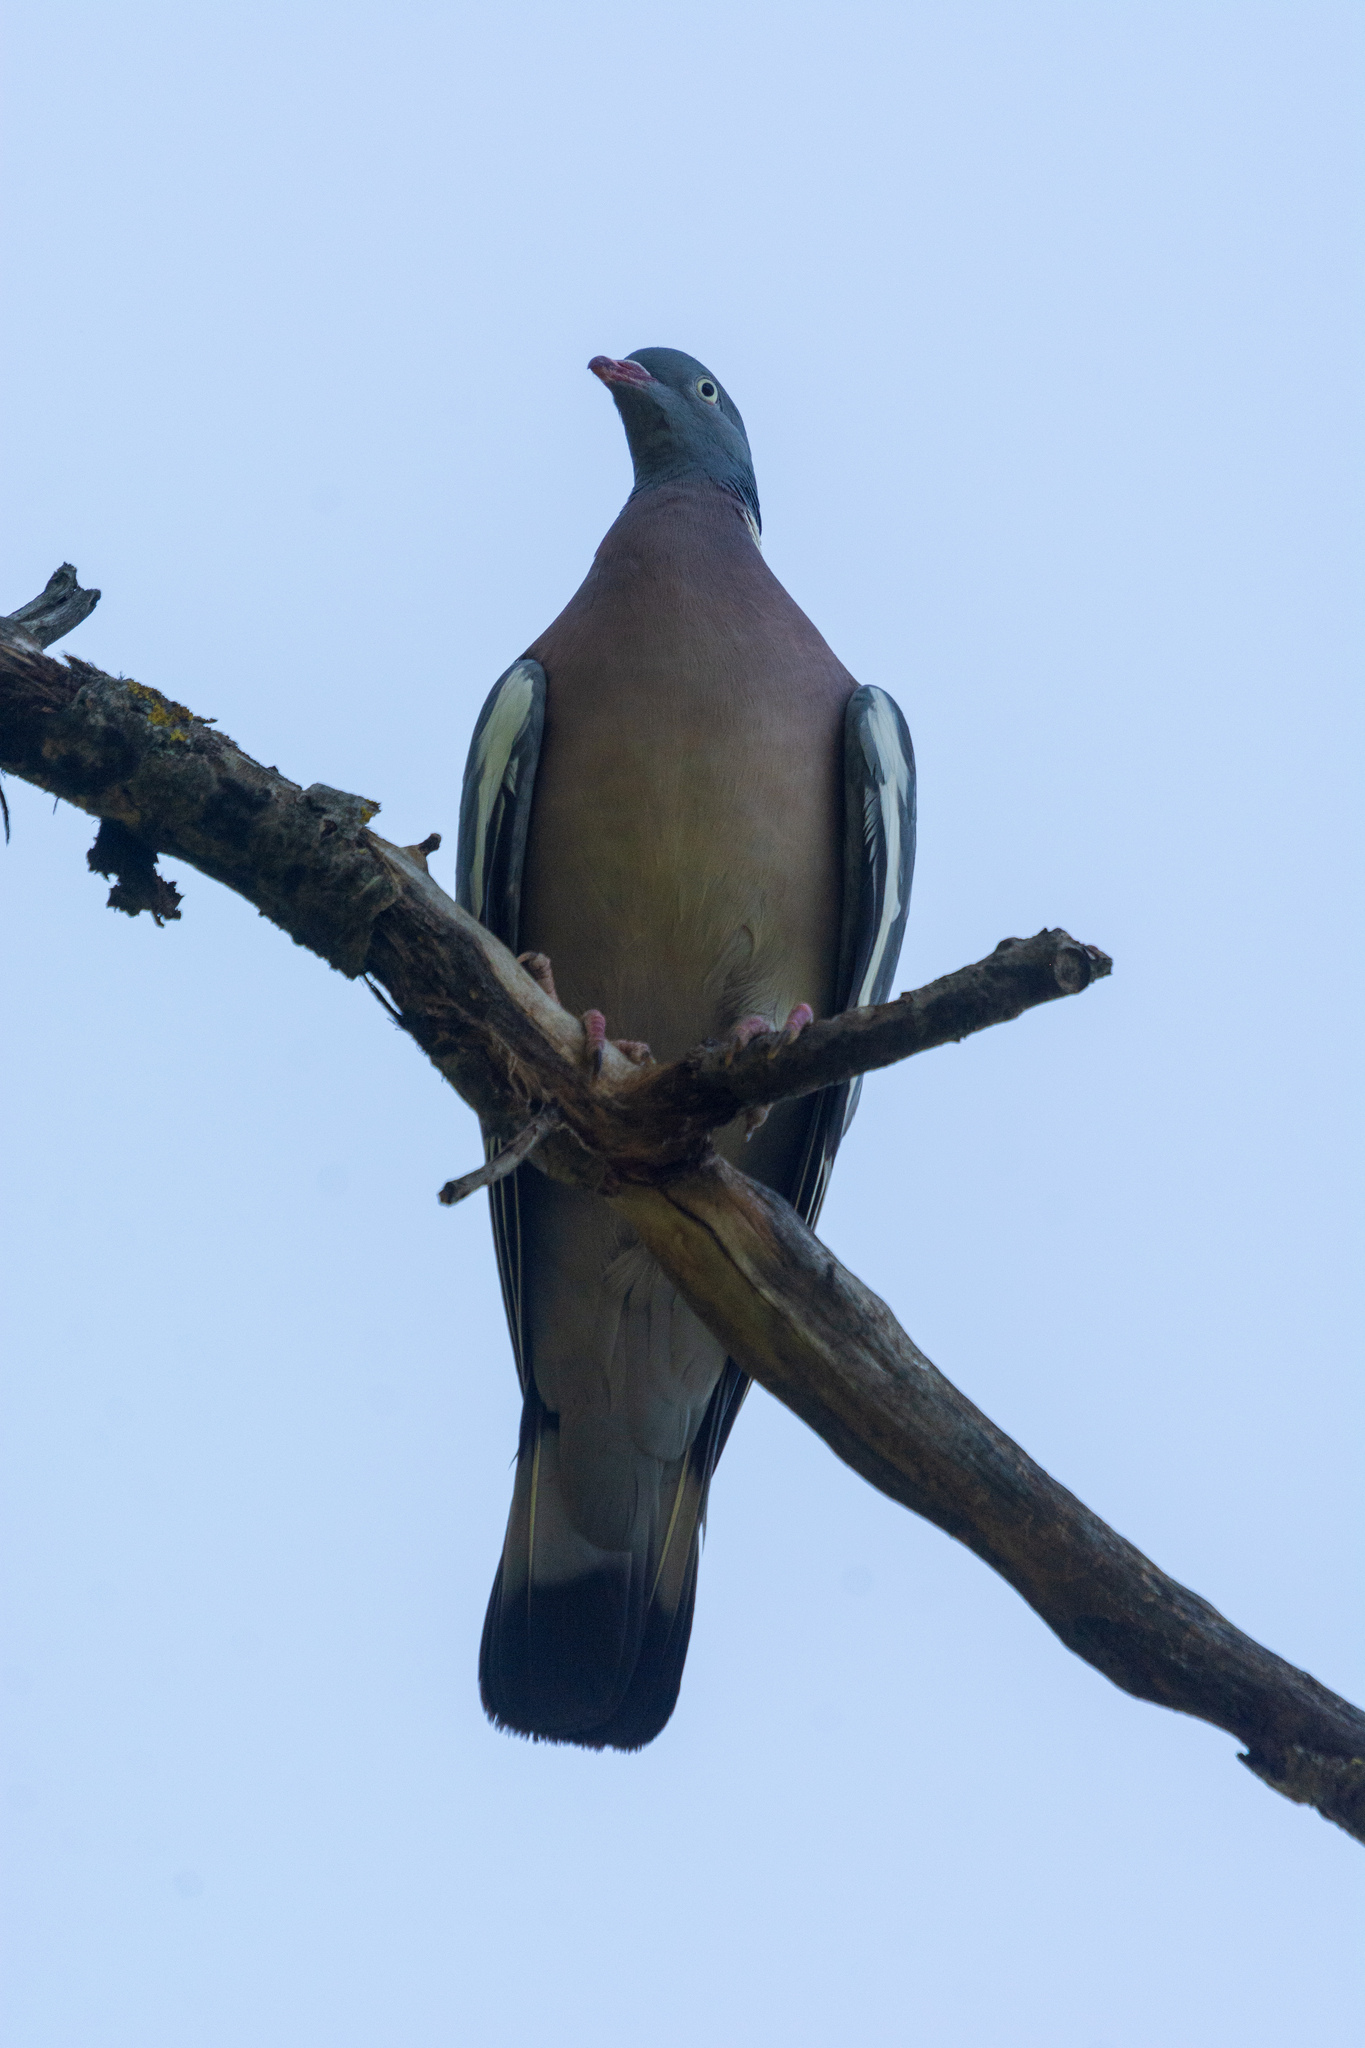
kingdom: Animalia
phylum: Chordata
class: Aves
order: Columbiformes
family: Columbidae
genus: Columba
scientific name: Columba palumbus
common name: Common wood pigeon
